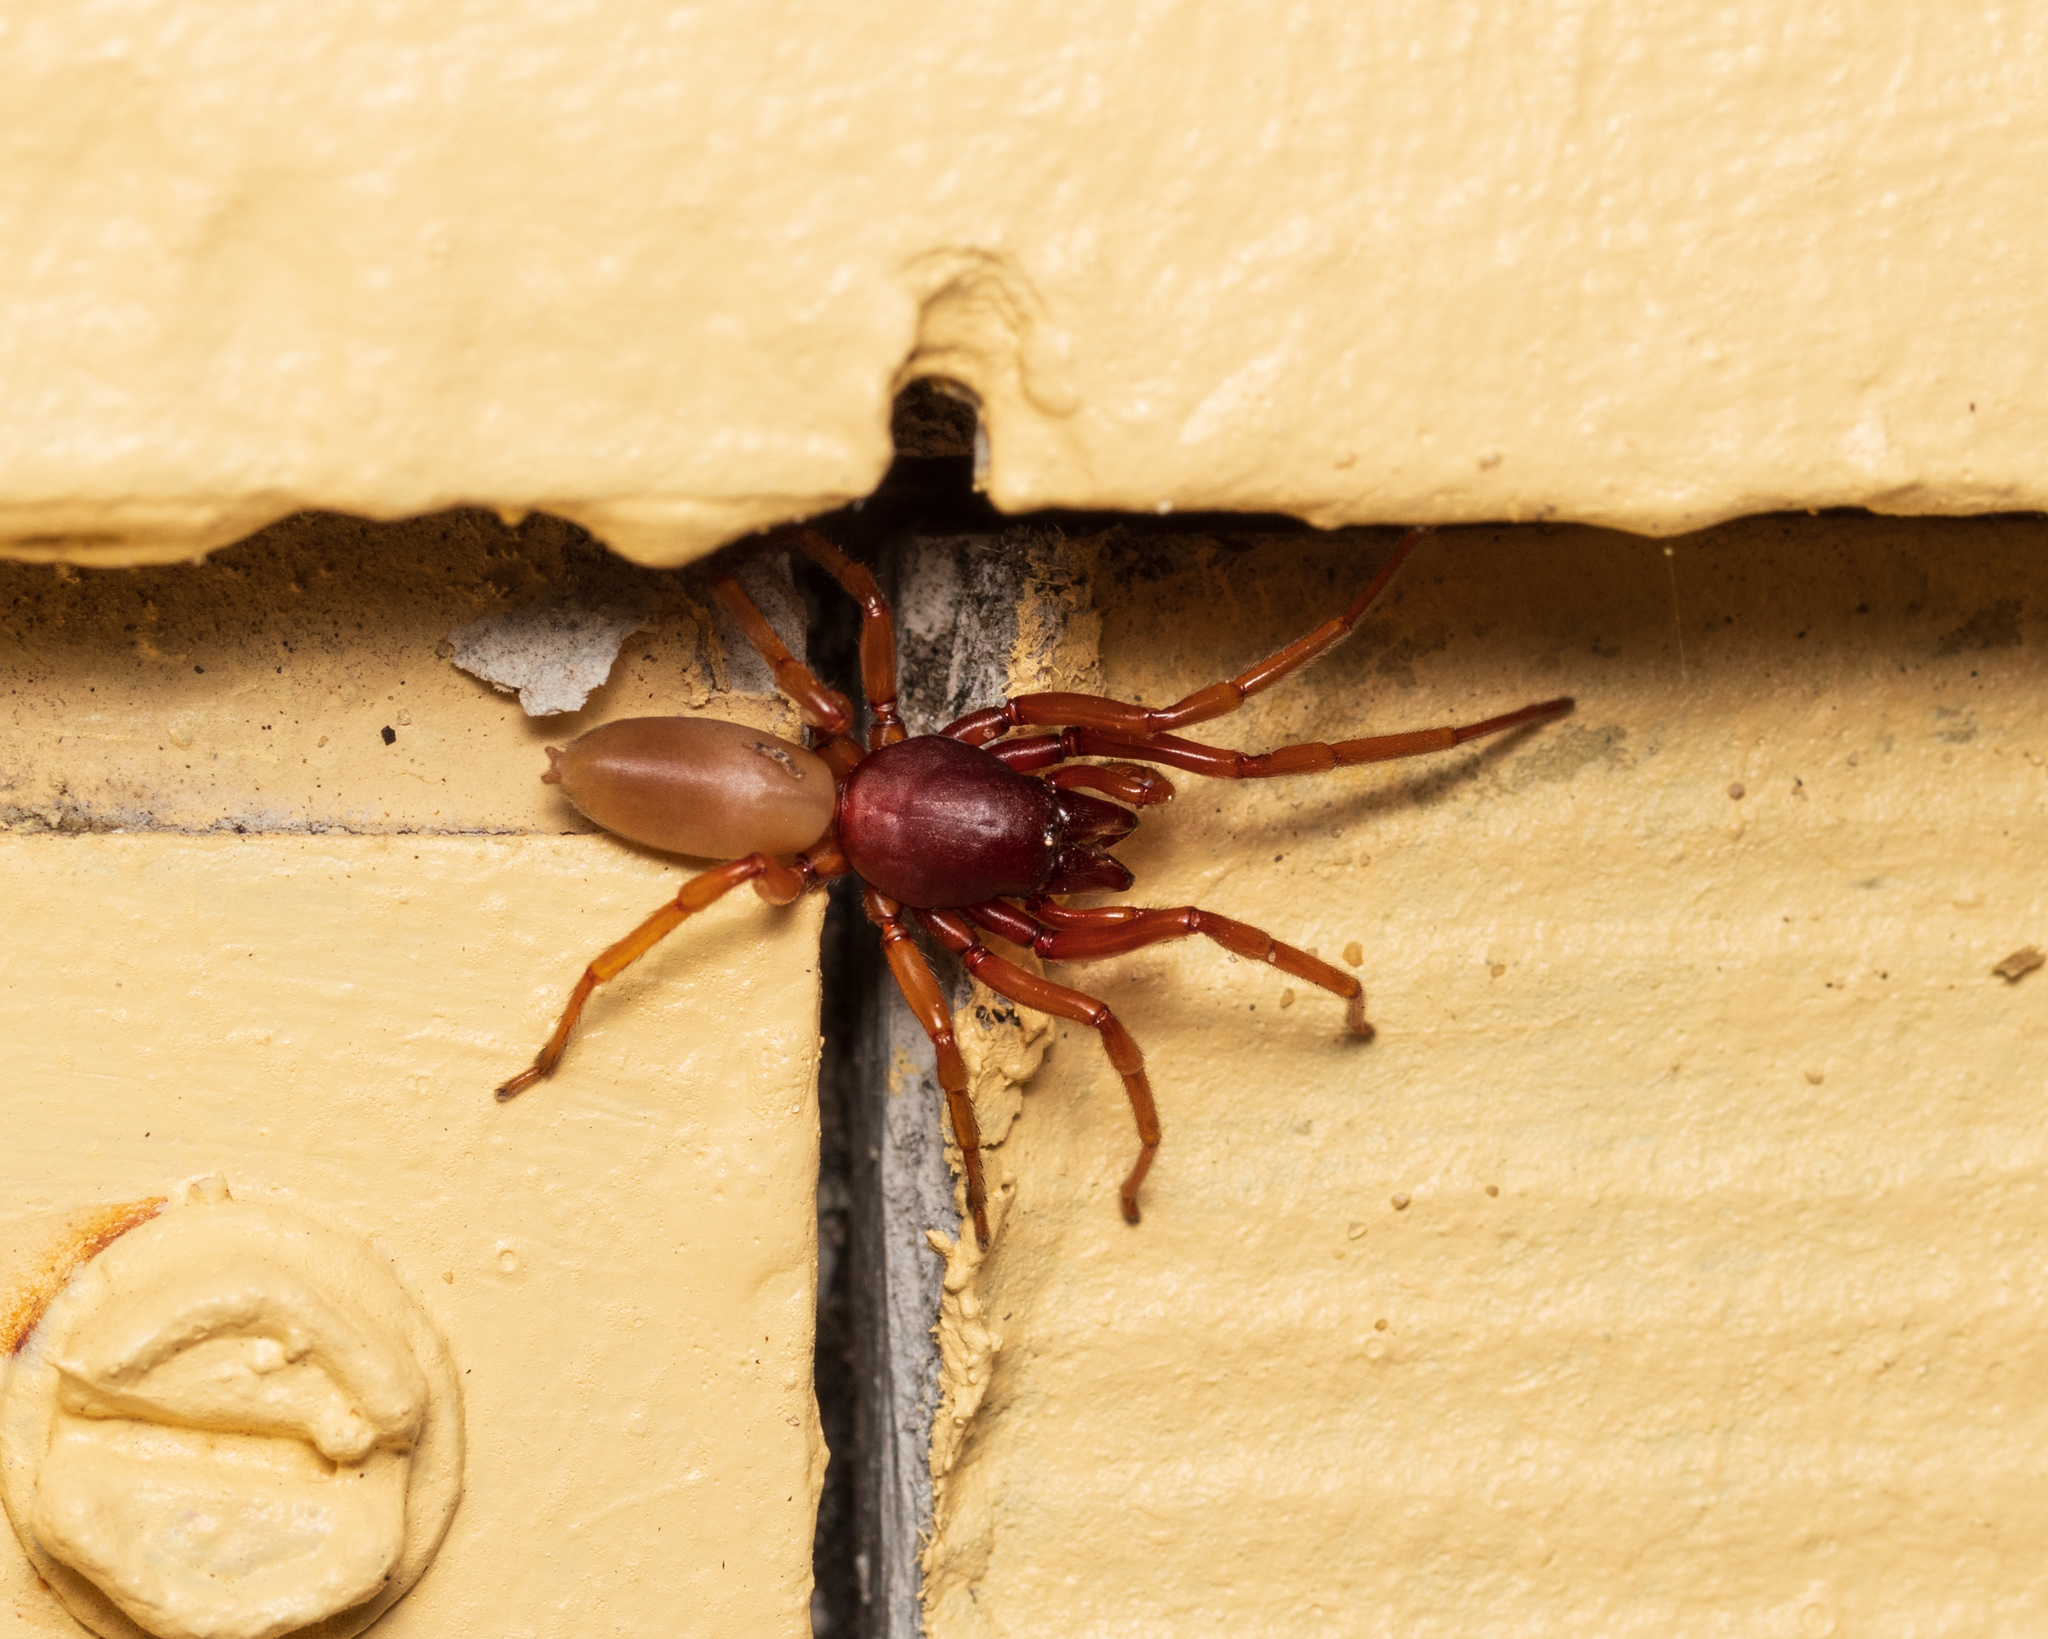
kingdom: Animalia
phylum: Arthropoda
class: Arachnida
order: Araneae
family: Dysderidae
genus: Dysdera
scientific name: Dysdera crocata
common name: Woodlouse spider
